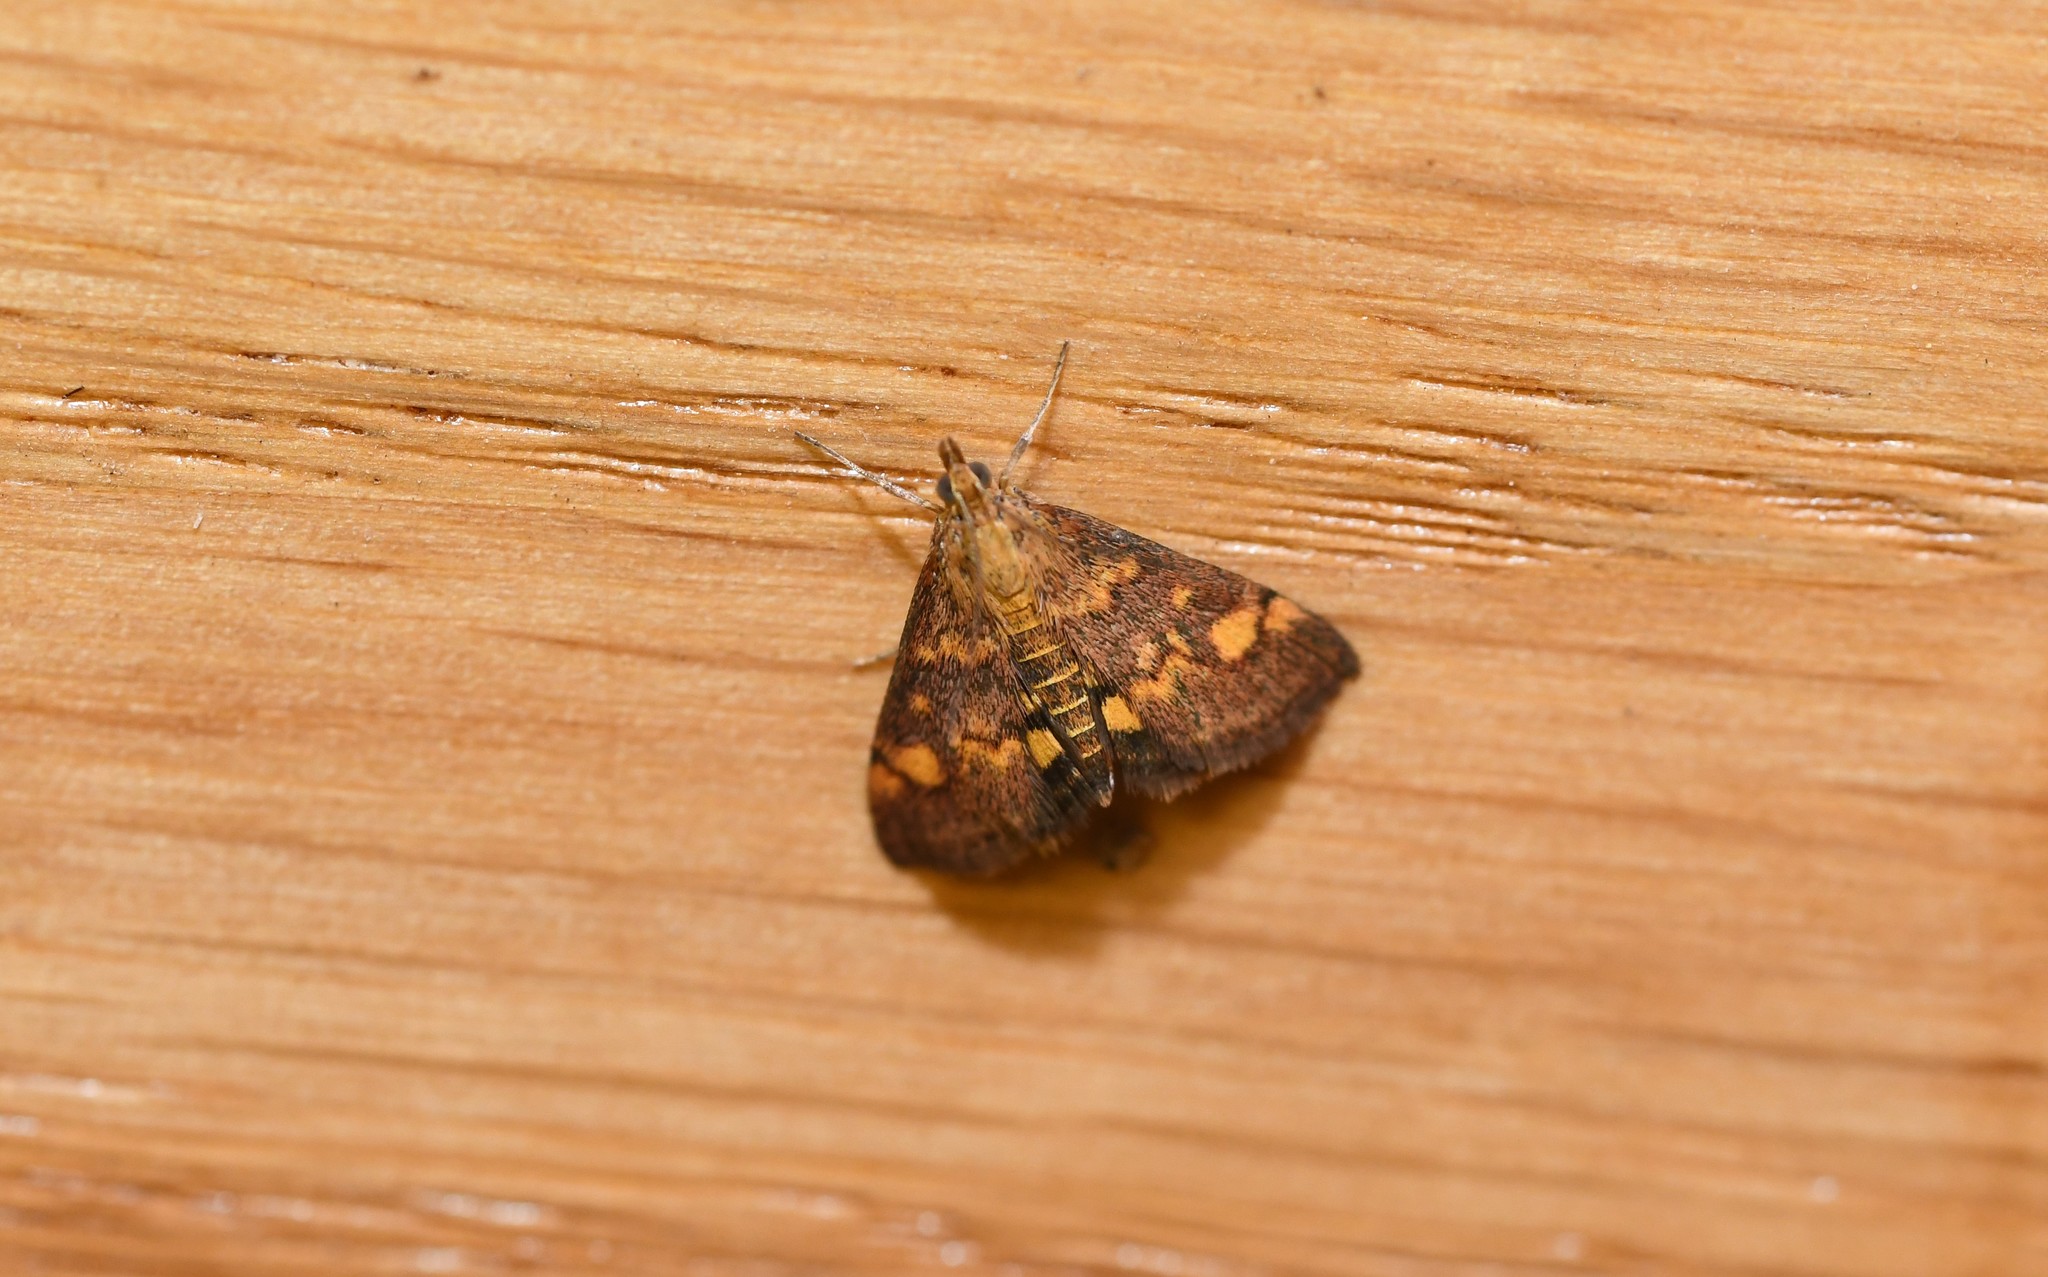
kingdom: Animalia
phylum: Arthropoda
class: Insecta
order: Lepidoptera
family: Crambidae
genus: Pyrausta
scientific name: Pyrausta aurata
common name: Small purple & gold
